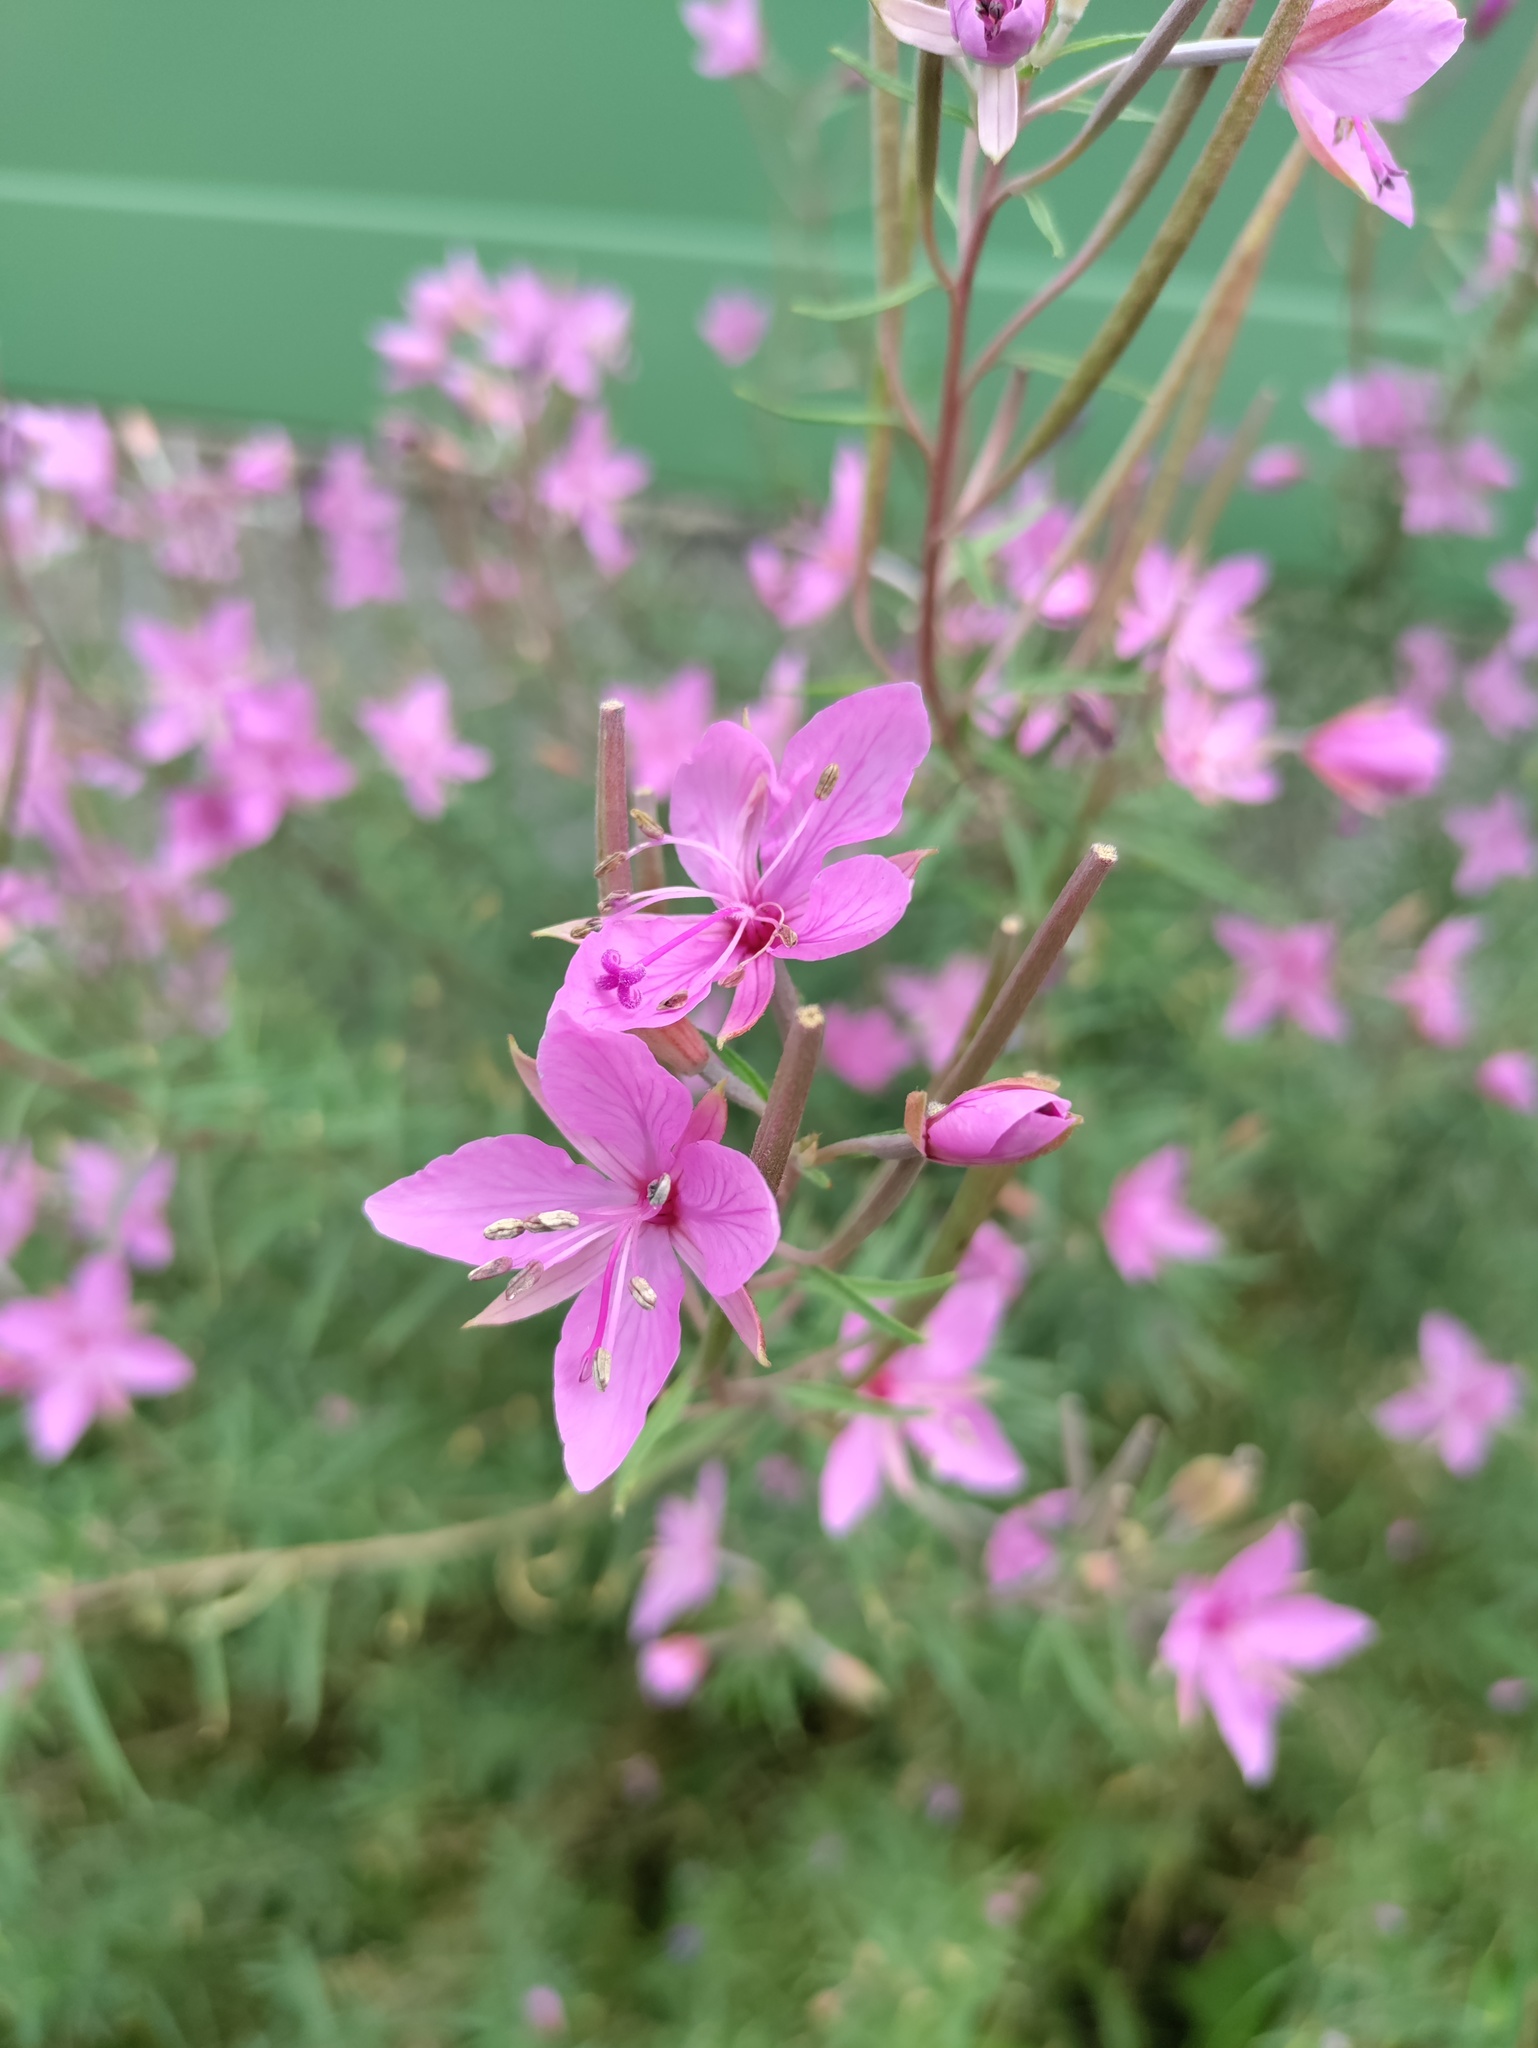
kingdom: Plantae
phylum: Tracheophyta
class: Magnoliopsida
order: Myrtales
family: Onagraceae
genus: Chamaenerion
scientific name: Chamaenerion dodonaei
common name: Rosemary-leaved willowherb
